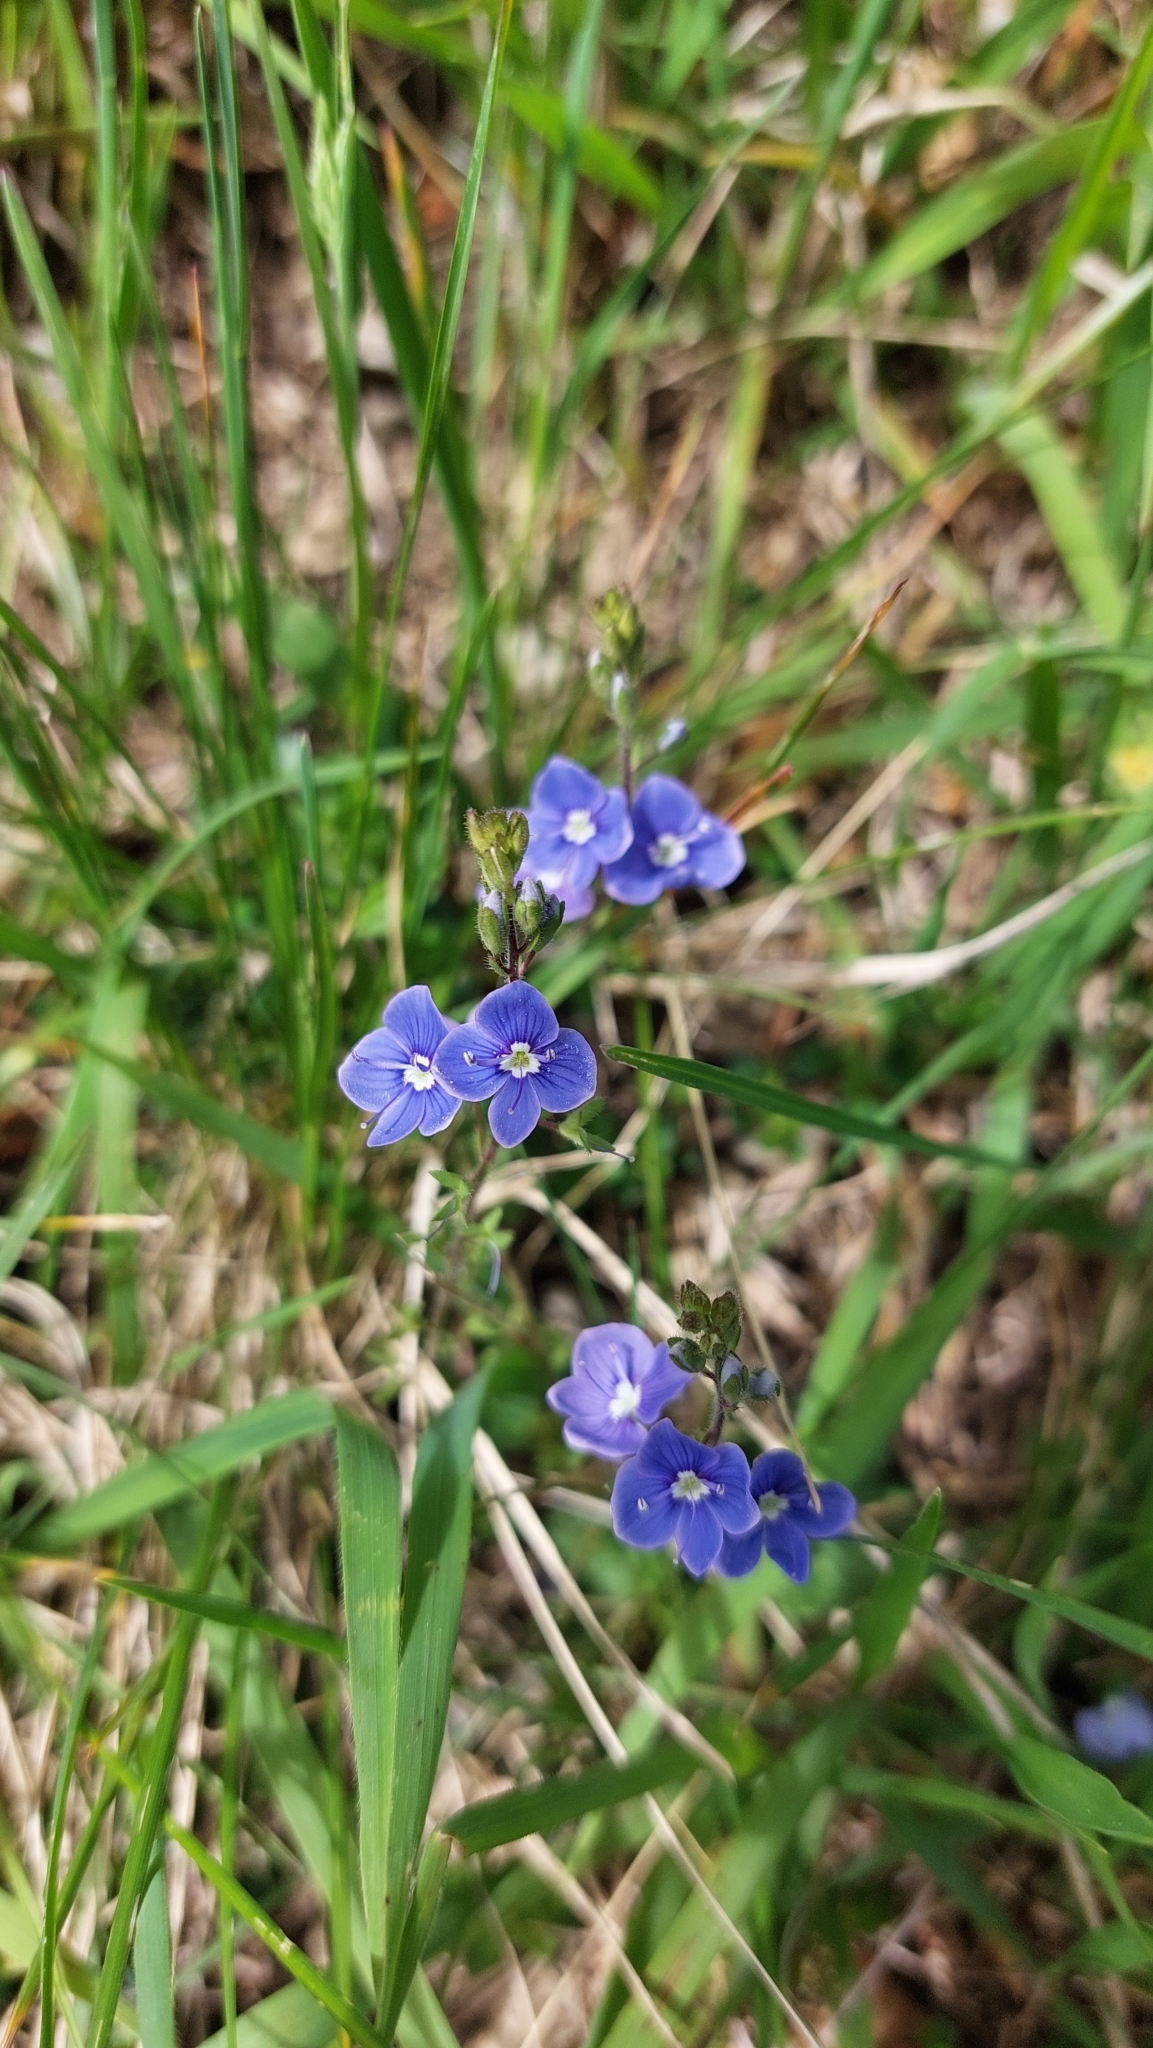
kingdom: Plantae
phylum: Tracheophyta
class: Magnoliopsida
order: Lamiales
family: Plantaginaceae
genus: Veronica
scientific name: Veronica chamaedrys
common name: Germander speedwell
